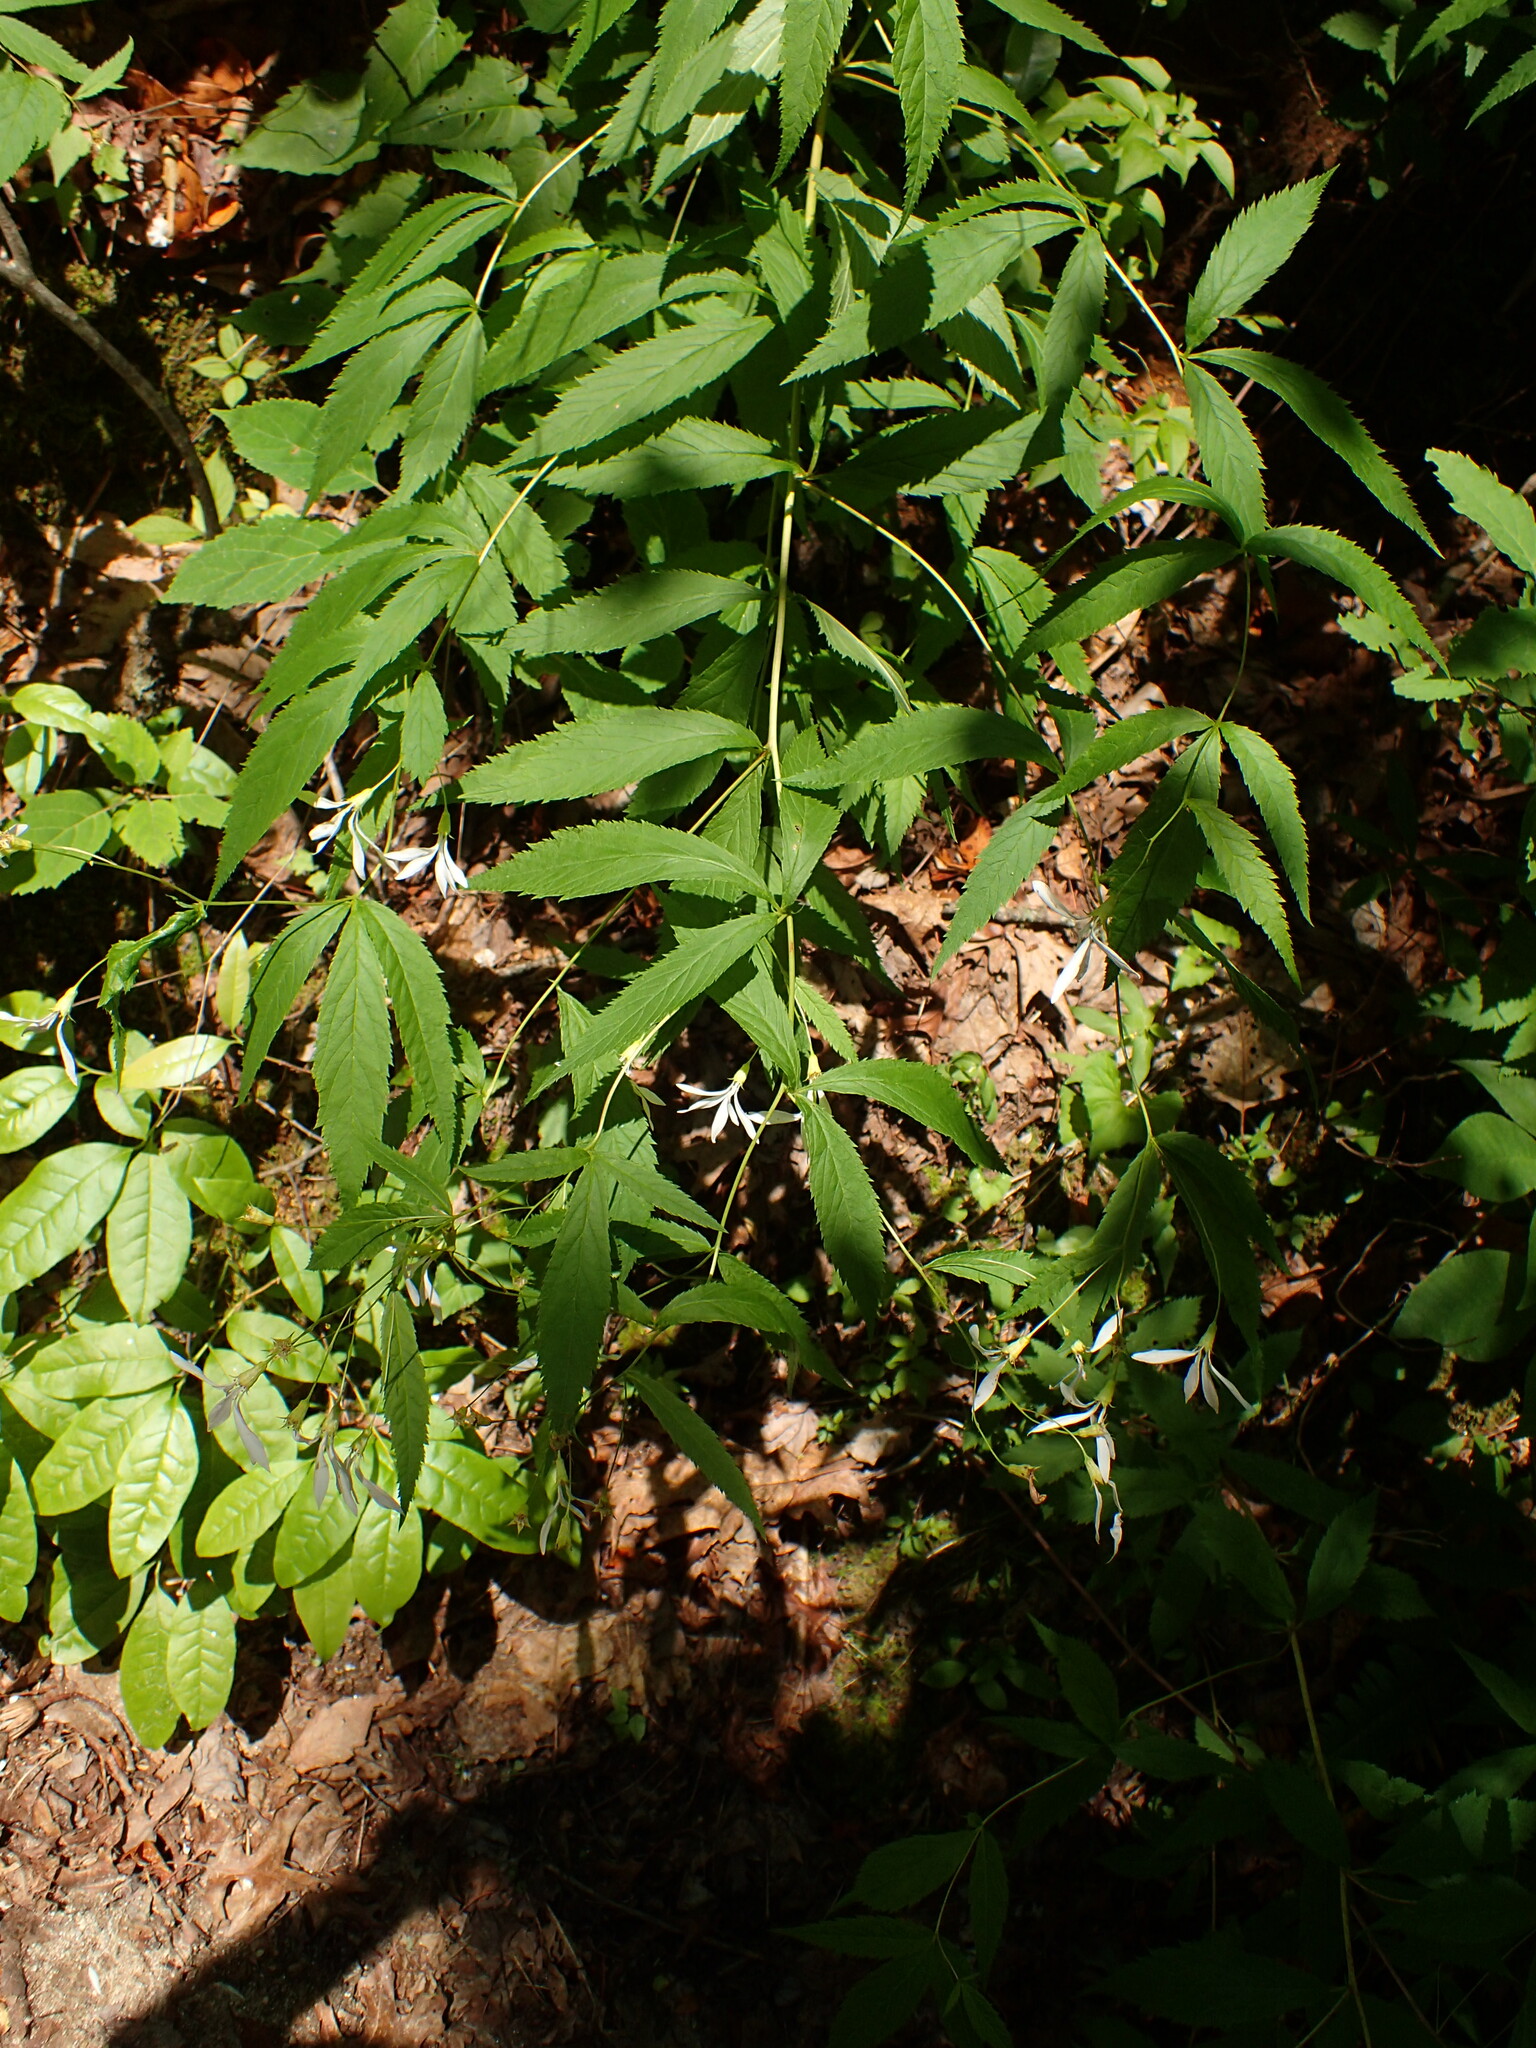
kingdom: Plantae
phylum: Tracheophyta
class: Magnoliopsida
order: Rosales
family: Rosaceae
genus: Gillenia
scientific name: Gillenia trifoliata
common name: Bowman's-root
